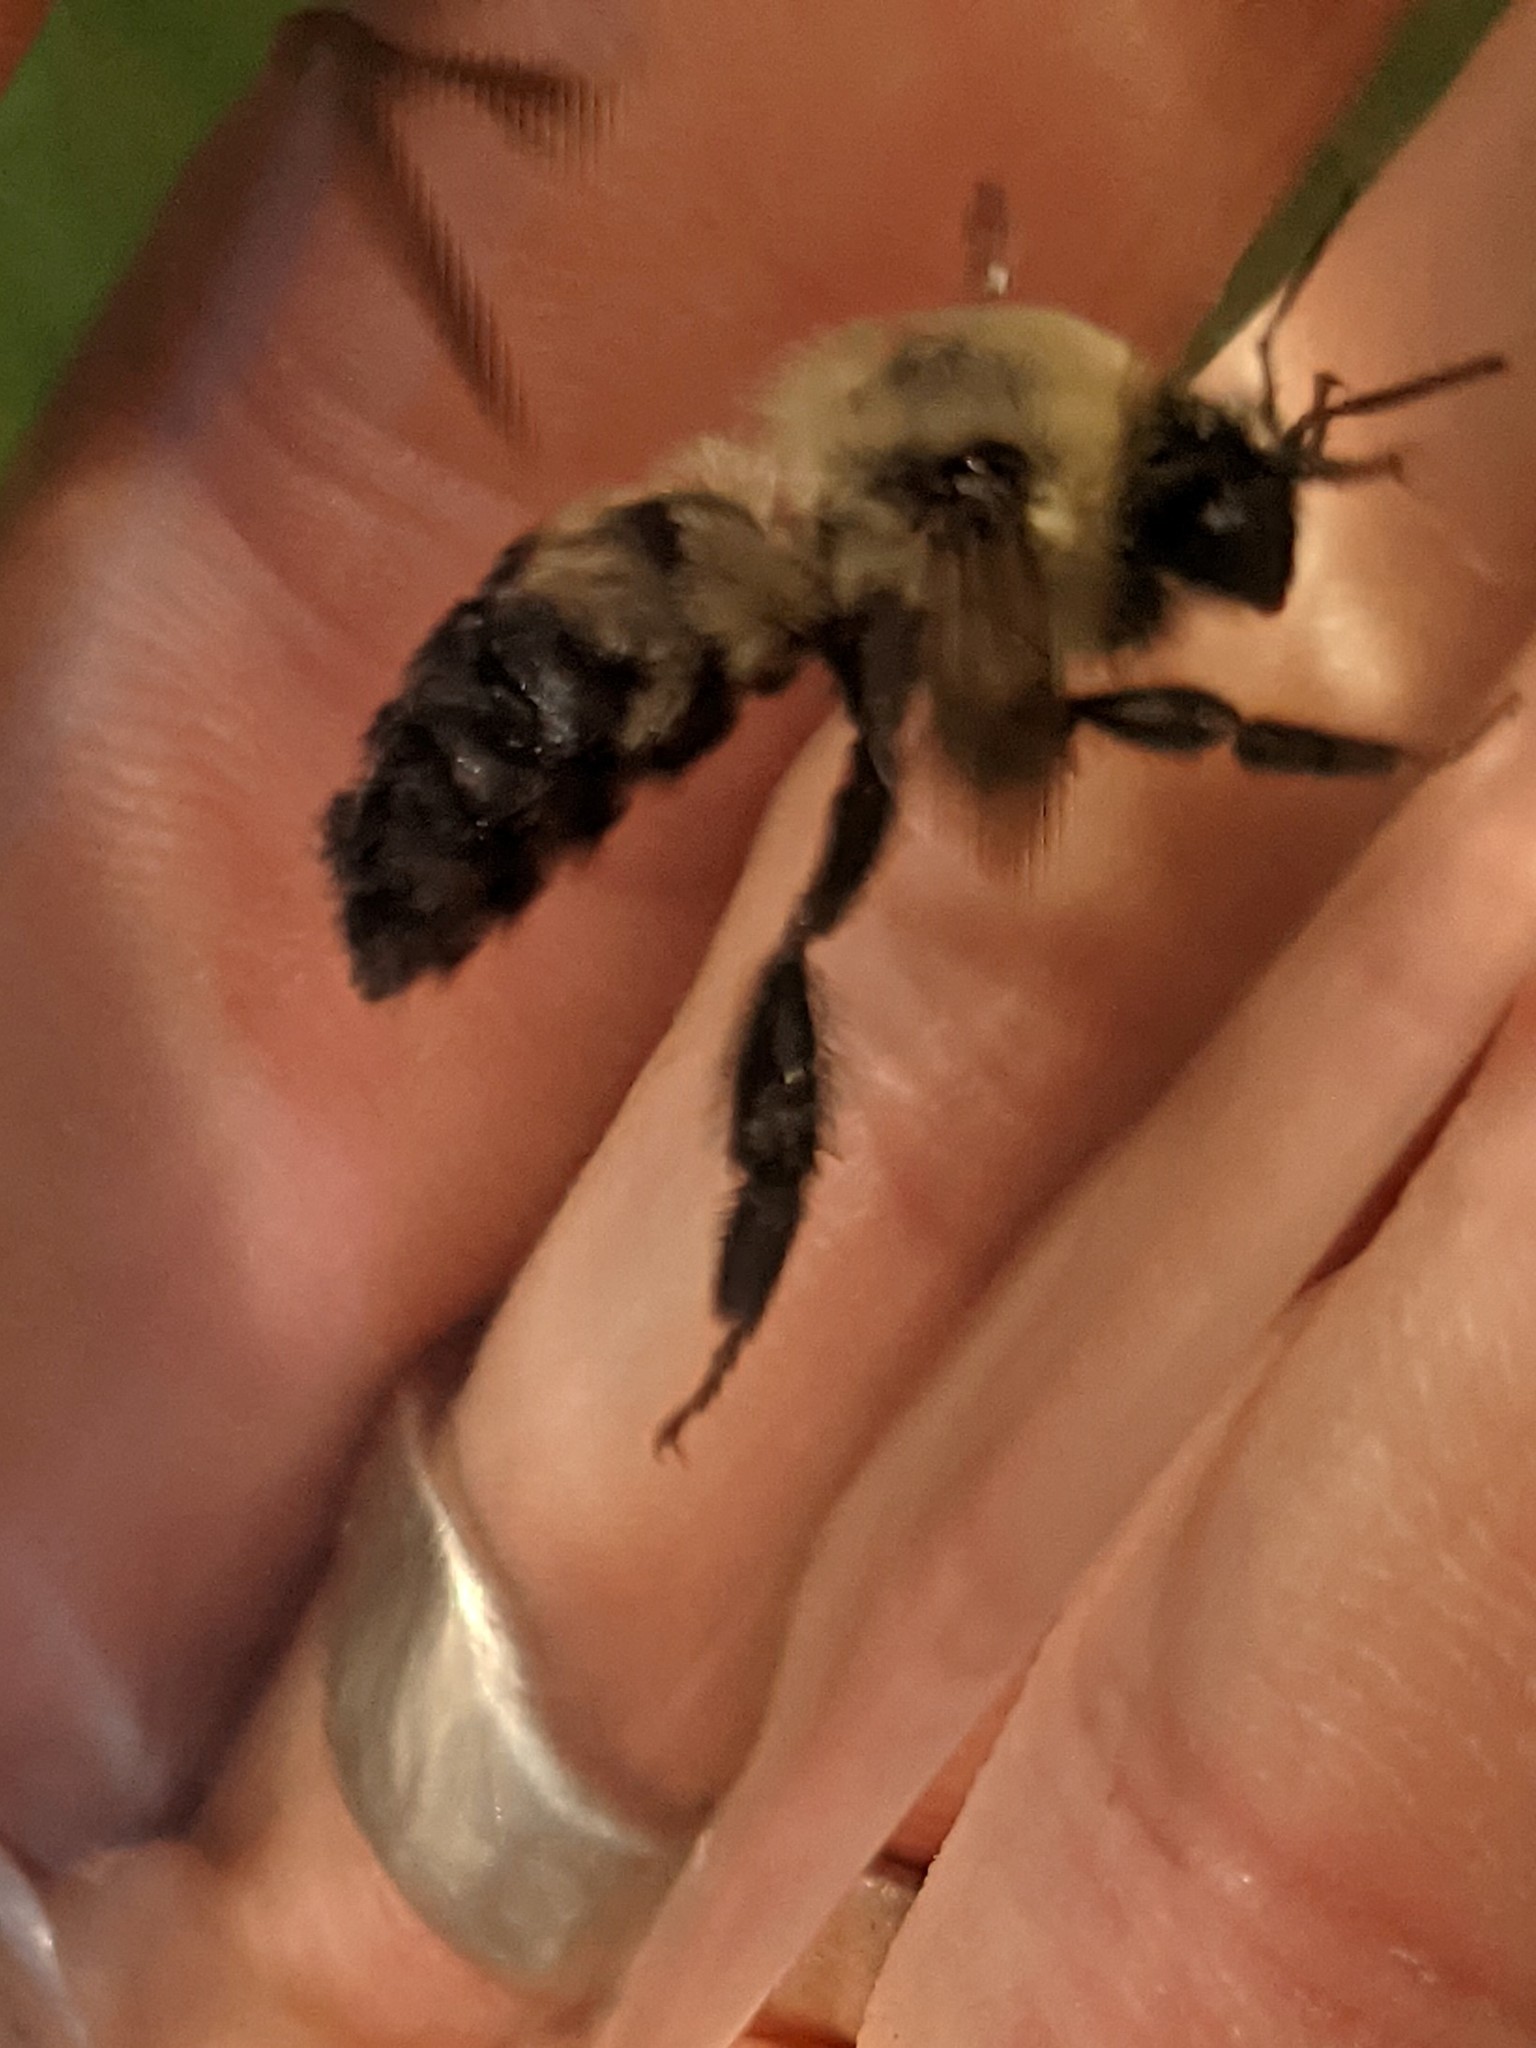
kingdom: Animalia
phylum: Arthropoda
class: Insecta
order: Hymenoptera
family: Apidae
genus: Bombus
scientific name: Bombus griseocollis
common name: Brown-belted bumble bee
